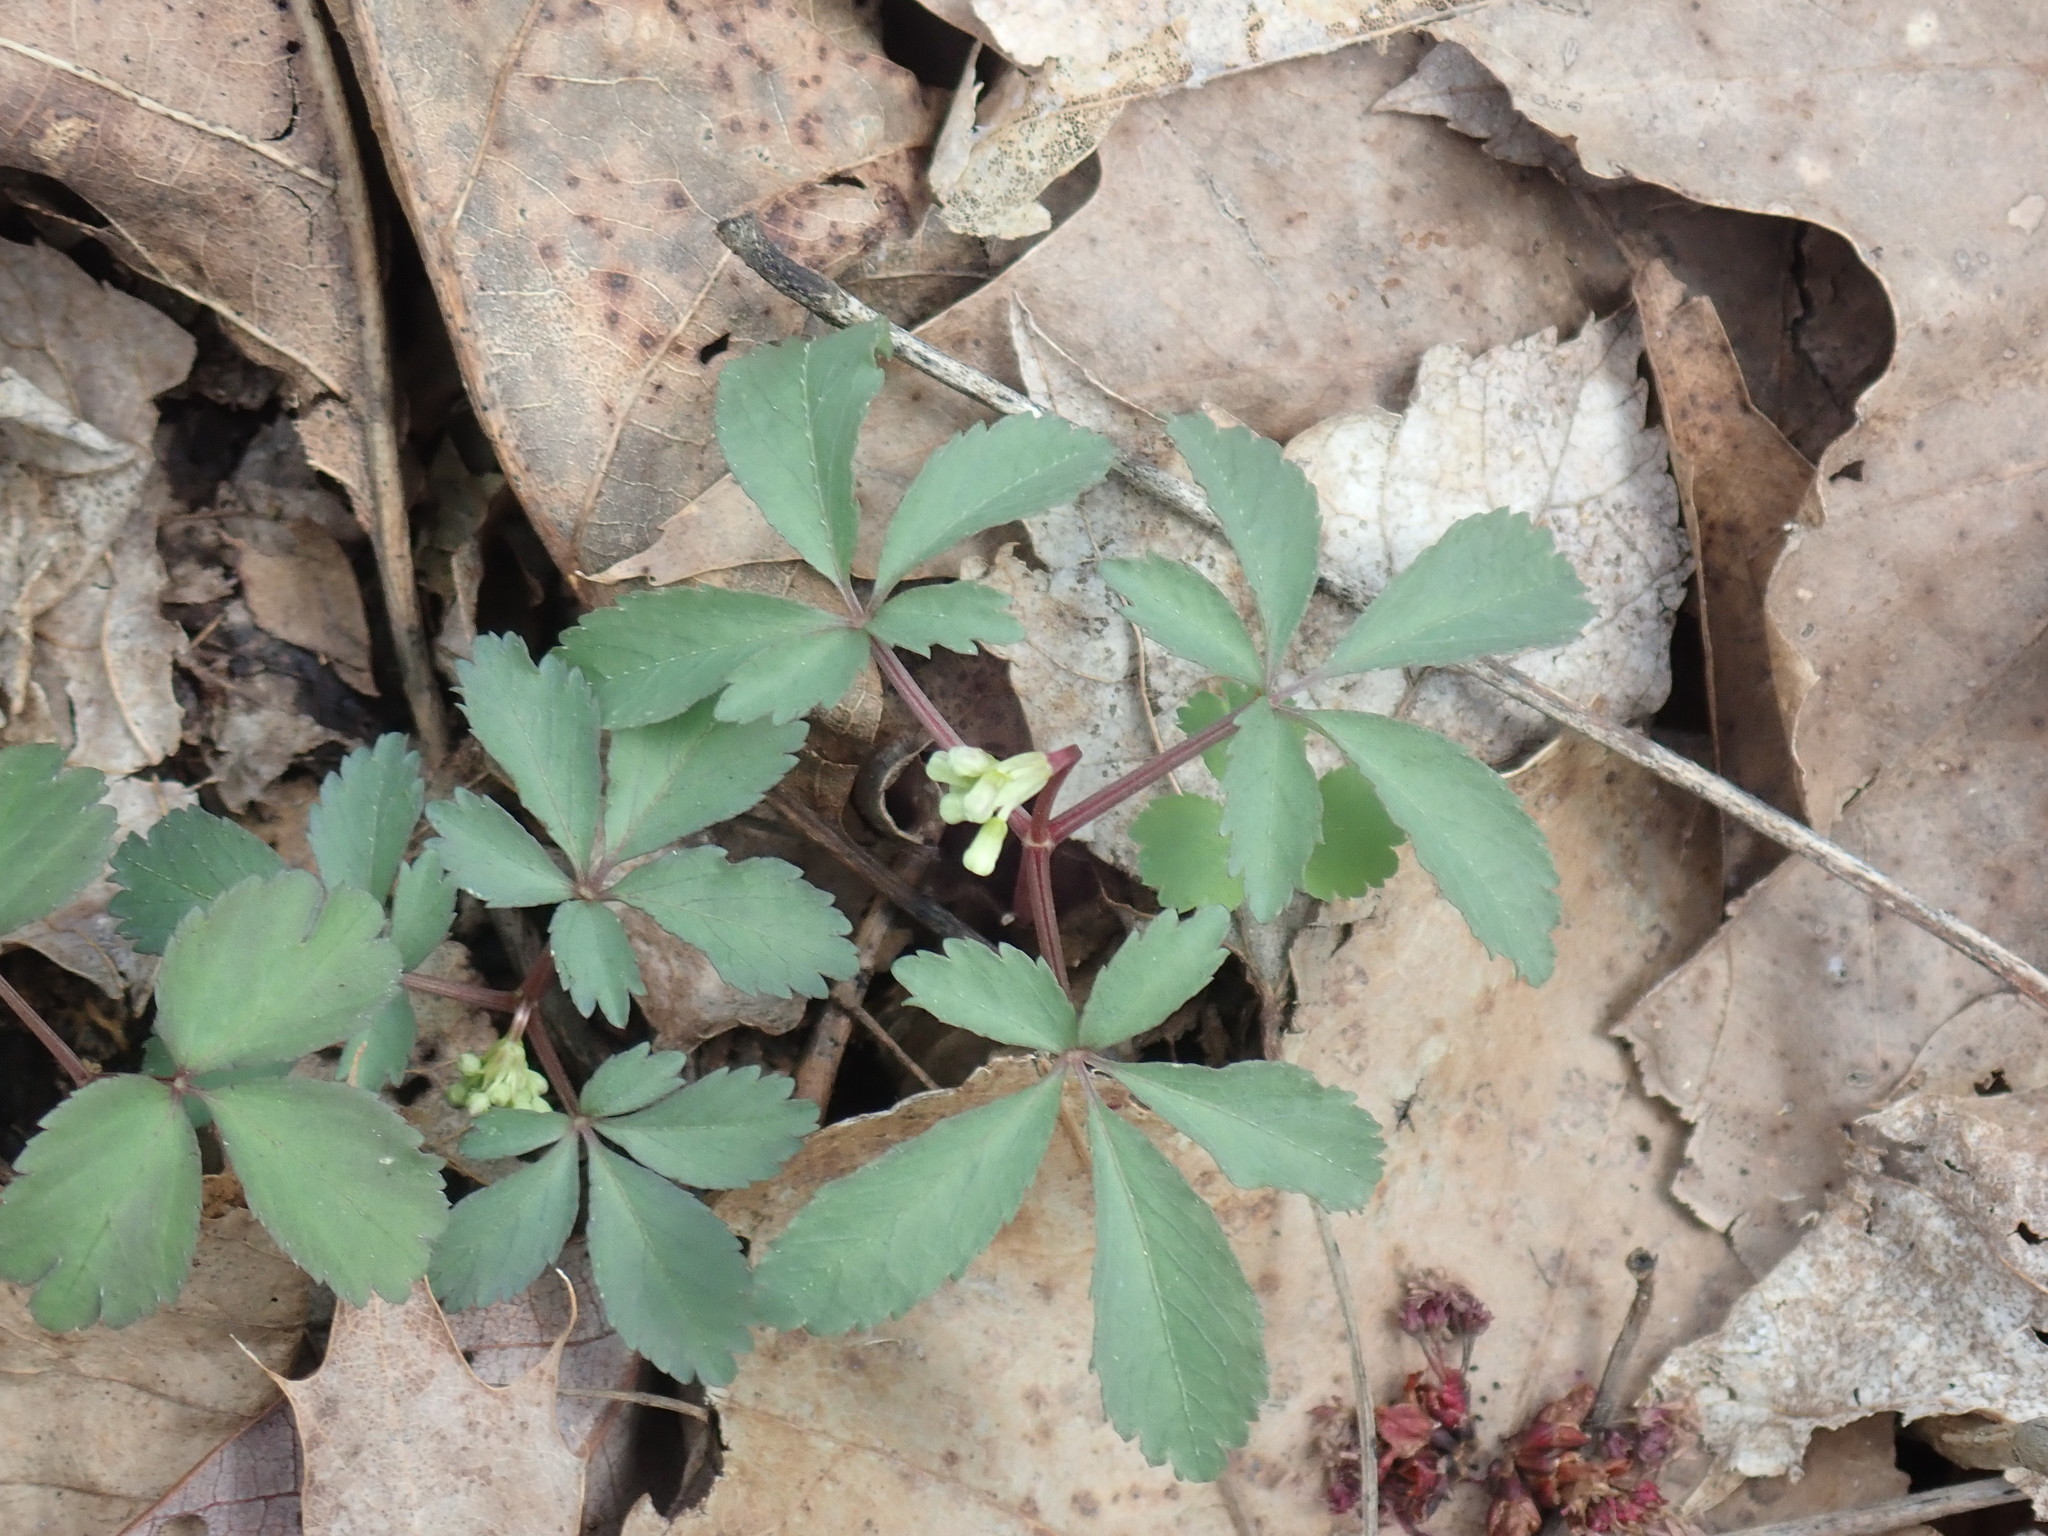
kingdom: Plantae
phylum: Tracheophyta
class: Magnoliopsida
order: Apiales
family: Araliaceae
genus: Panax
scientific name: Panax trifolius
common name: Dwarf ginseng
